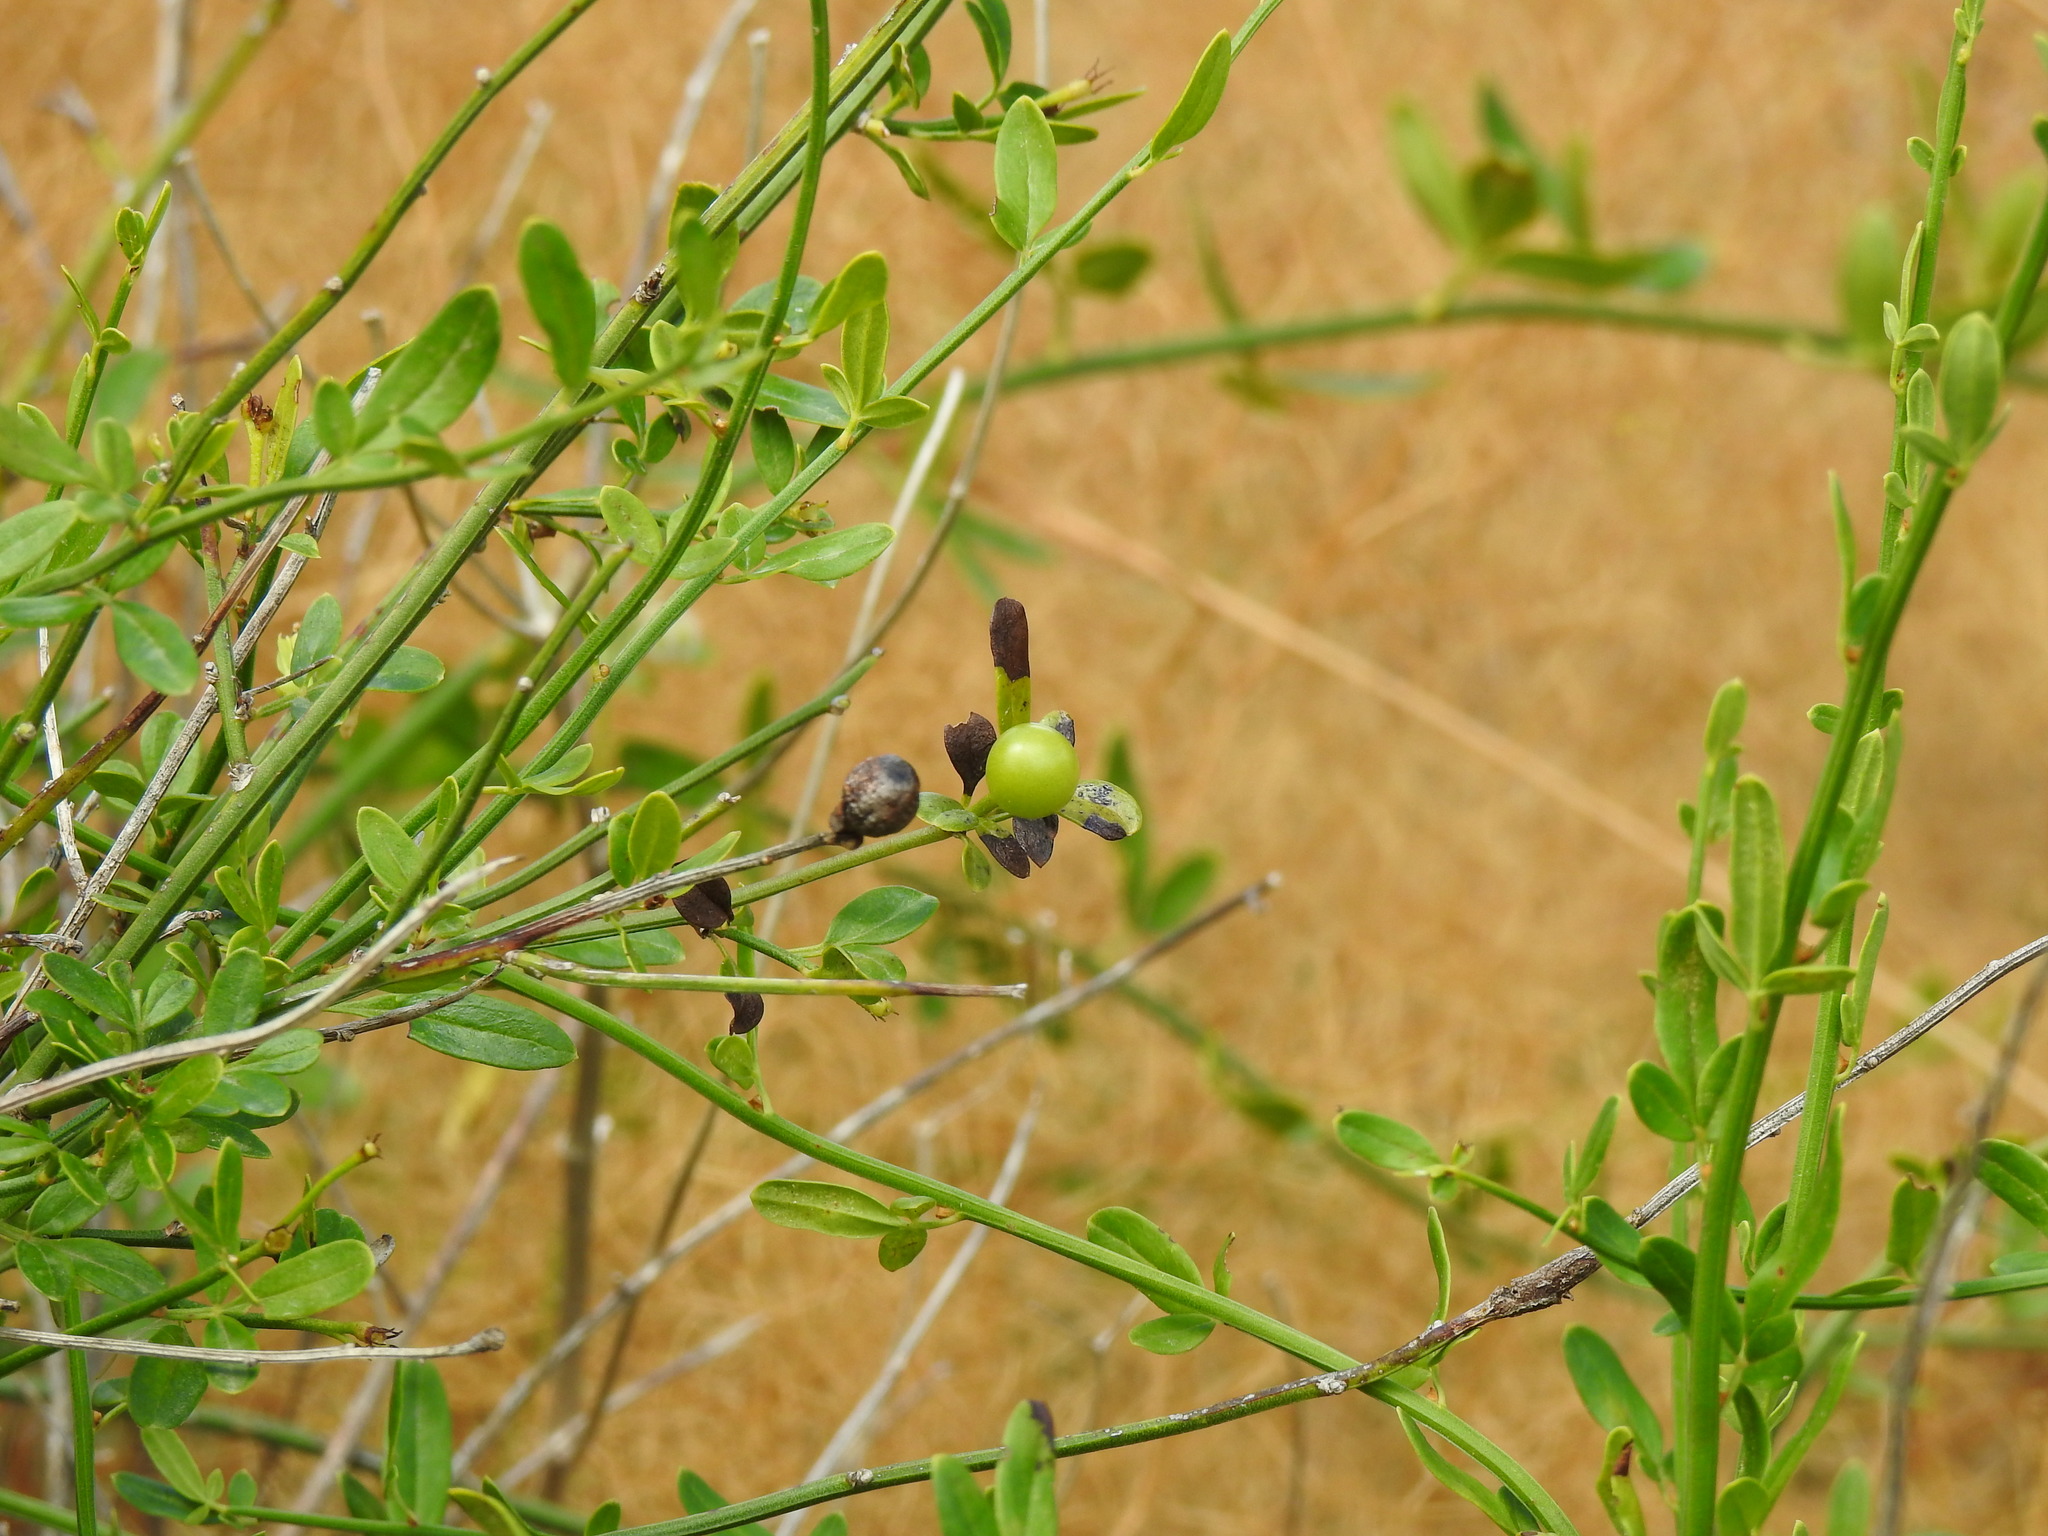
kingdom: Plantae
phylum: Tracheophyta
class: Magnoliopsida
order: Lamiales
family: Oleaceae
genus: Chrysojasminum
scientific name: Chrysojasminum fruticans
